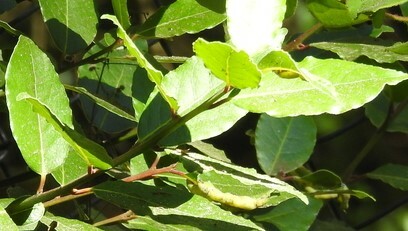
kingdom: Animalia
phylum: Arthropoda
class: Insecta
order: Hemiptera
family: Triozidae
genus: Lauritrioza
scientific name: Lauritrioza alacris
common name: Laurel psyllid
